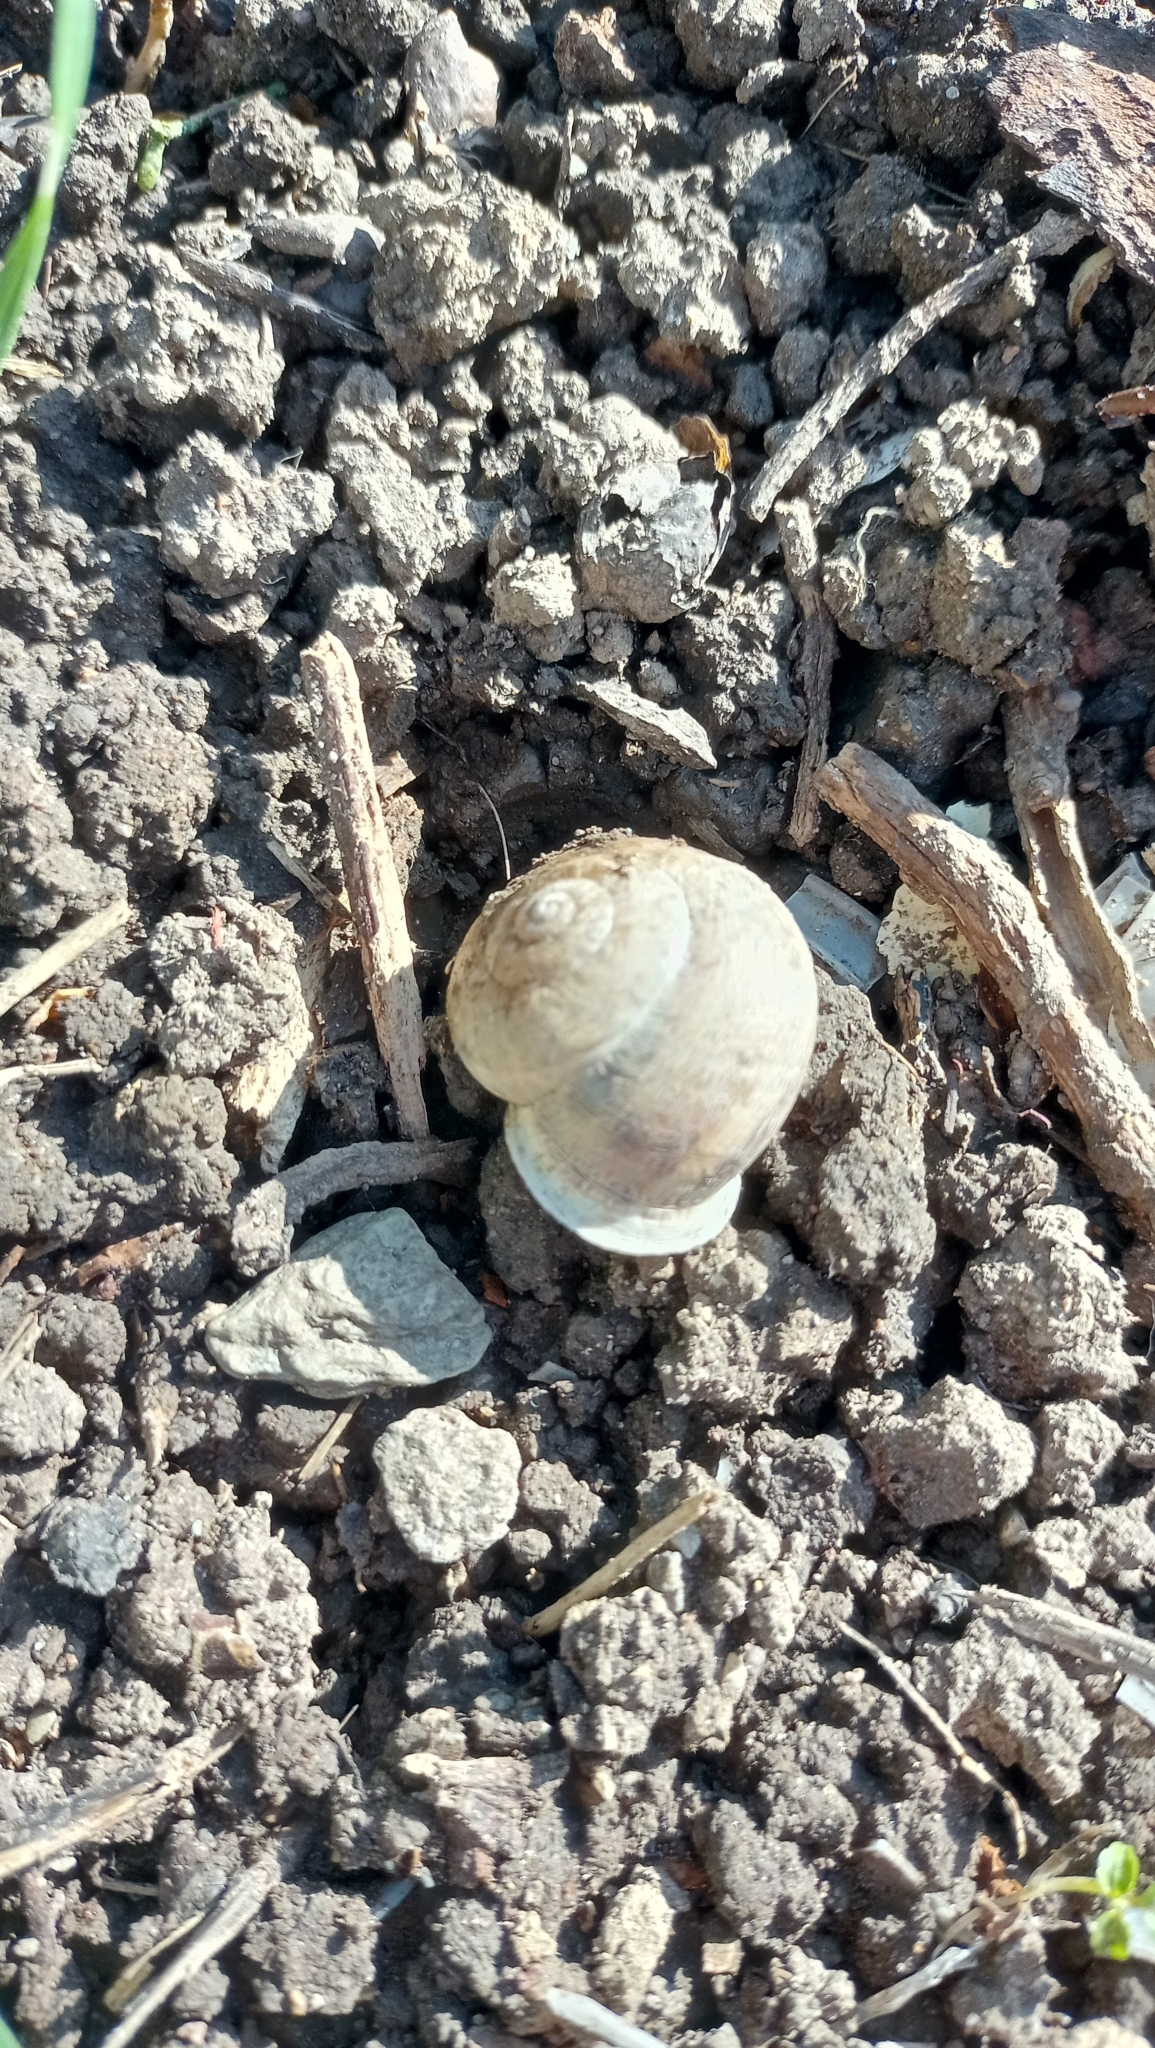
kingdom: Animalia
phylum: Mollusca
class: Gastropoda
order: Stylommatophora
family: Helicidae
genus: Eobania
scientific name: Eobania vermiculata
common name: Chocolateband snail
